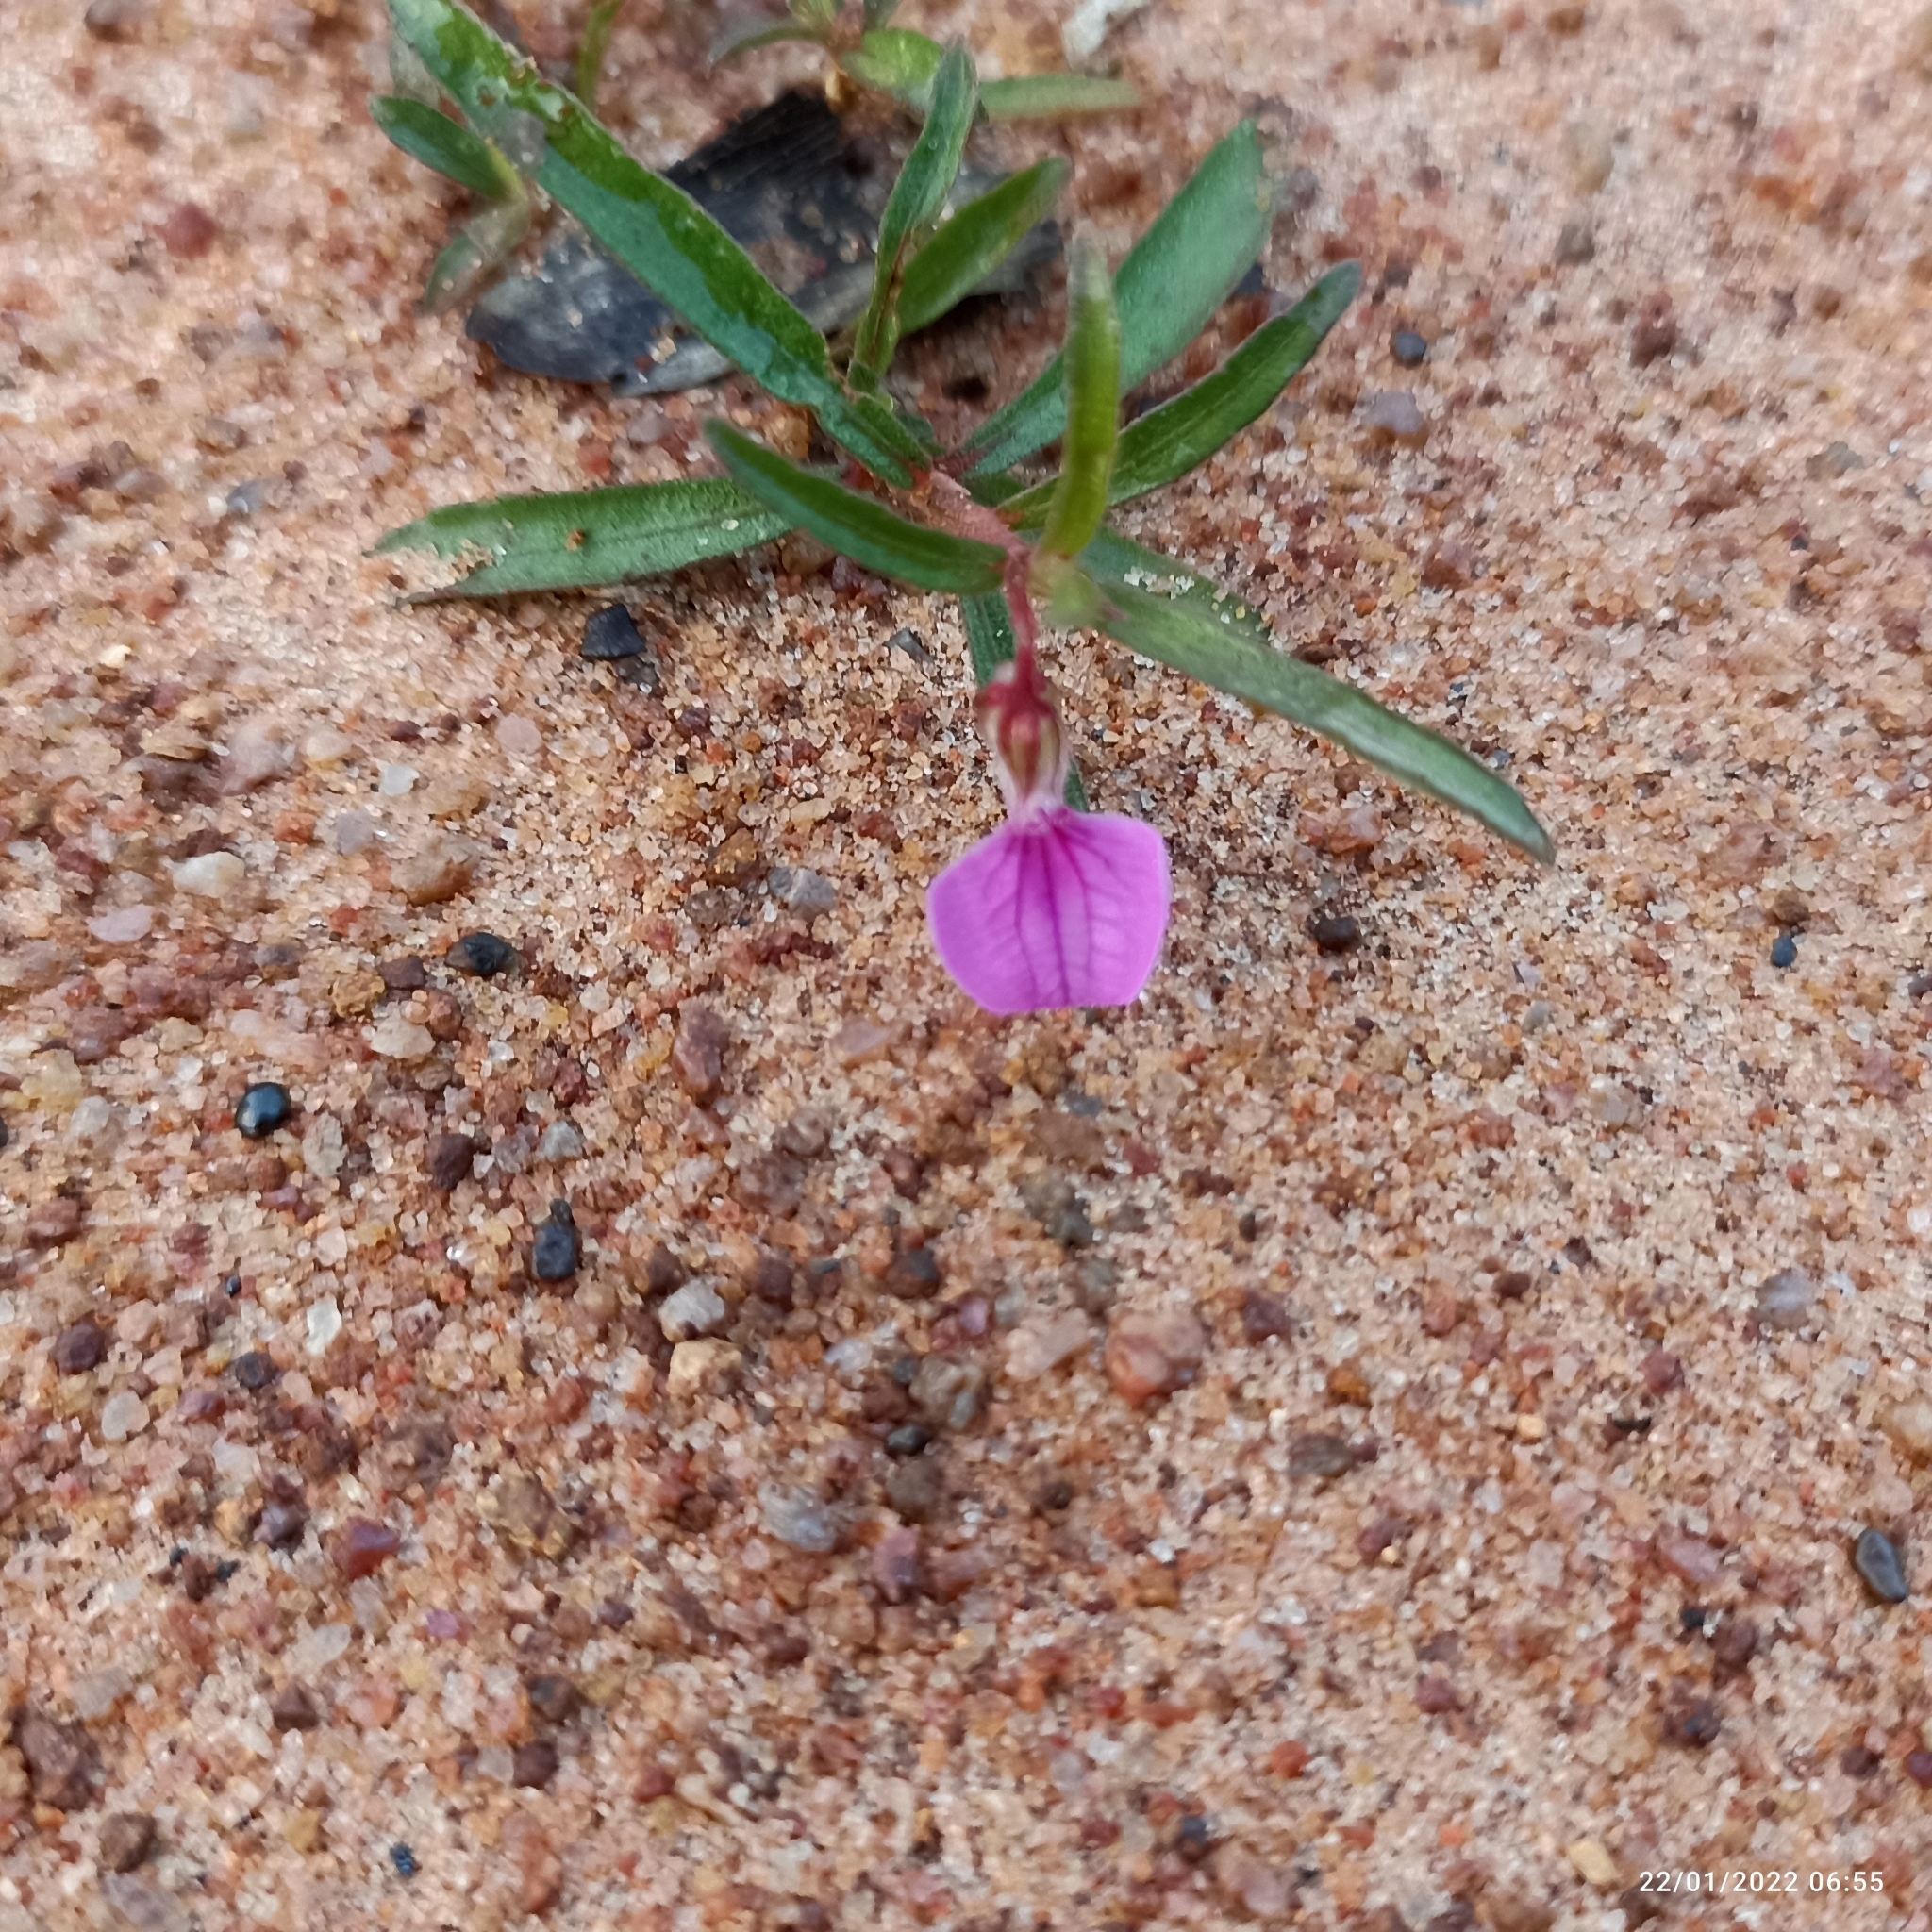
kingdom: Plantae
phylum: Tracheophyta
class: Magnoliopsida
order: Malpighiales
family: Violaceae
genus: Pigea
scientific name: Pigea enneasperma
